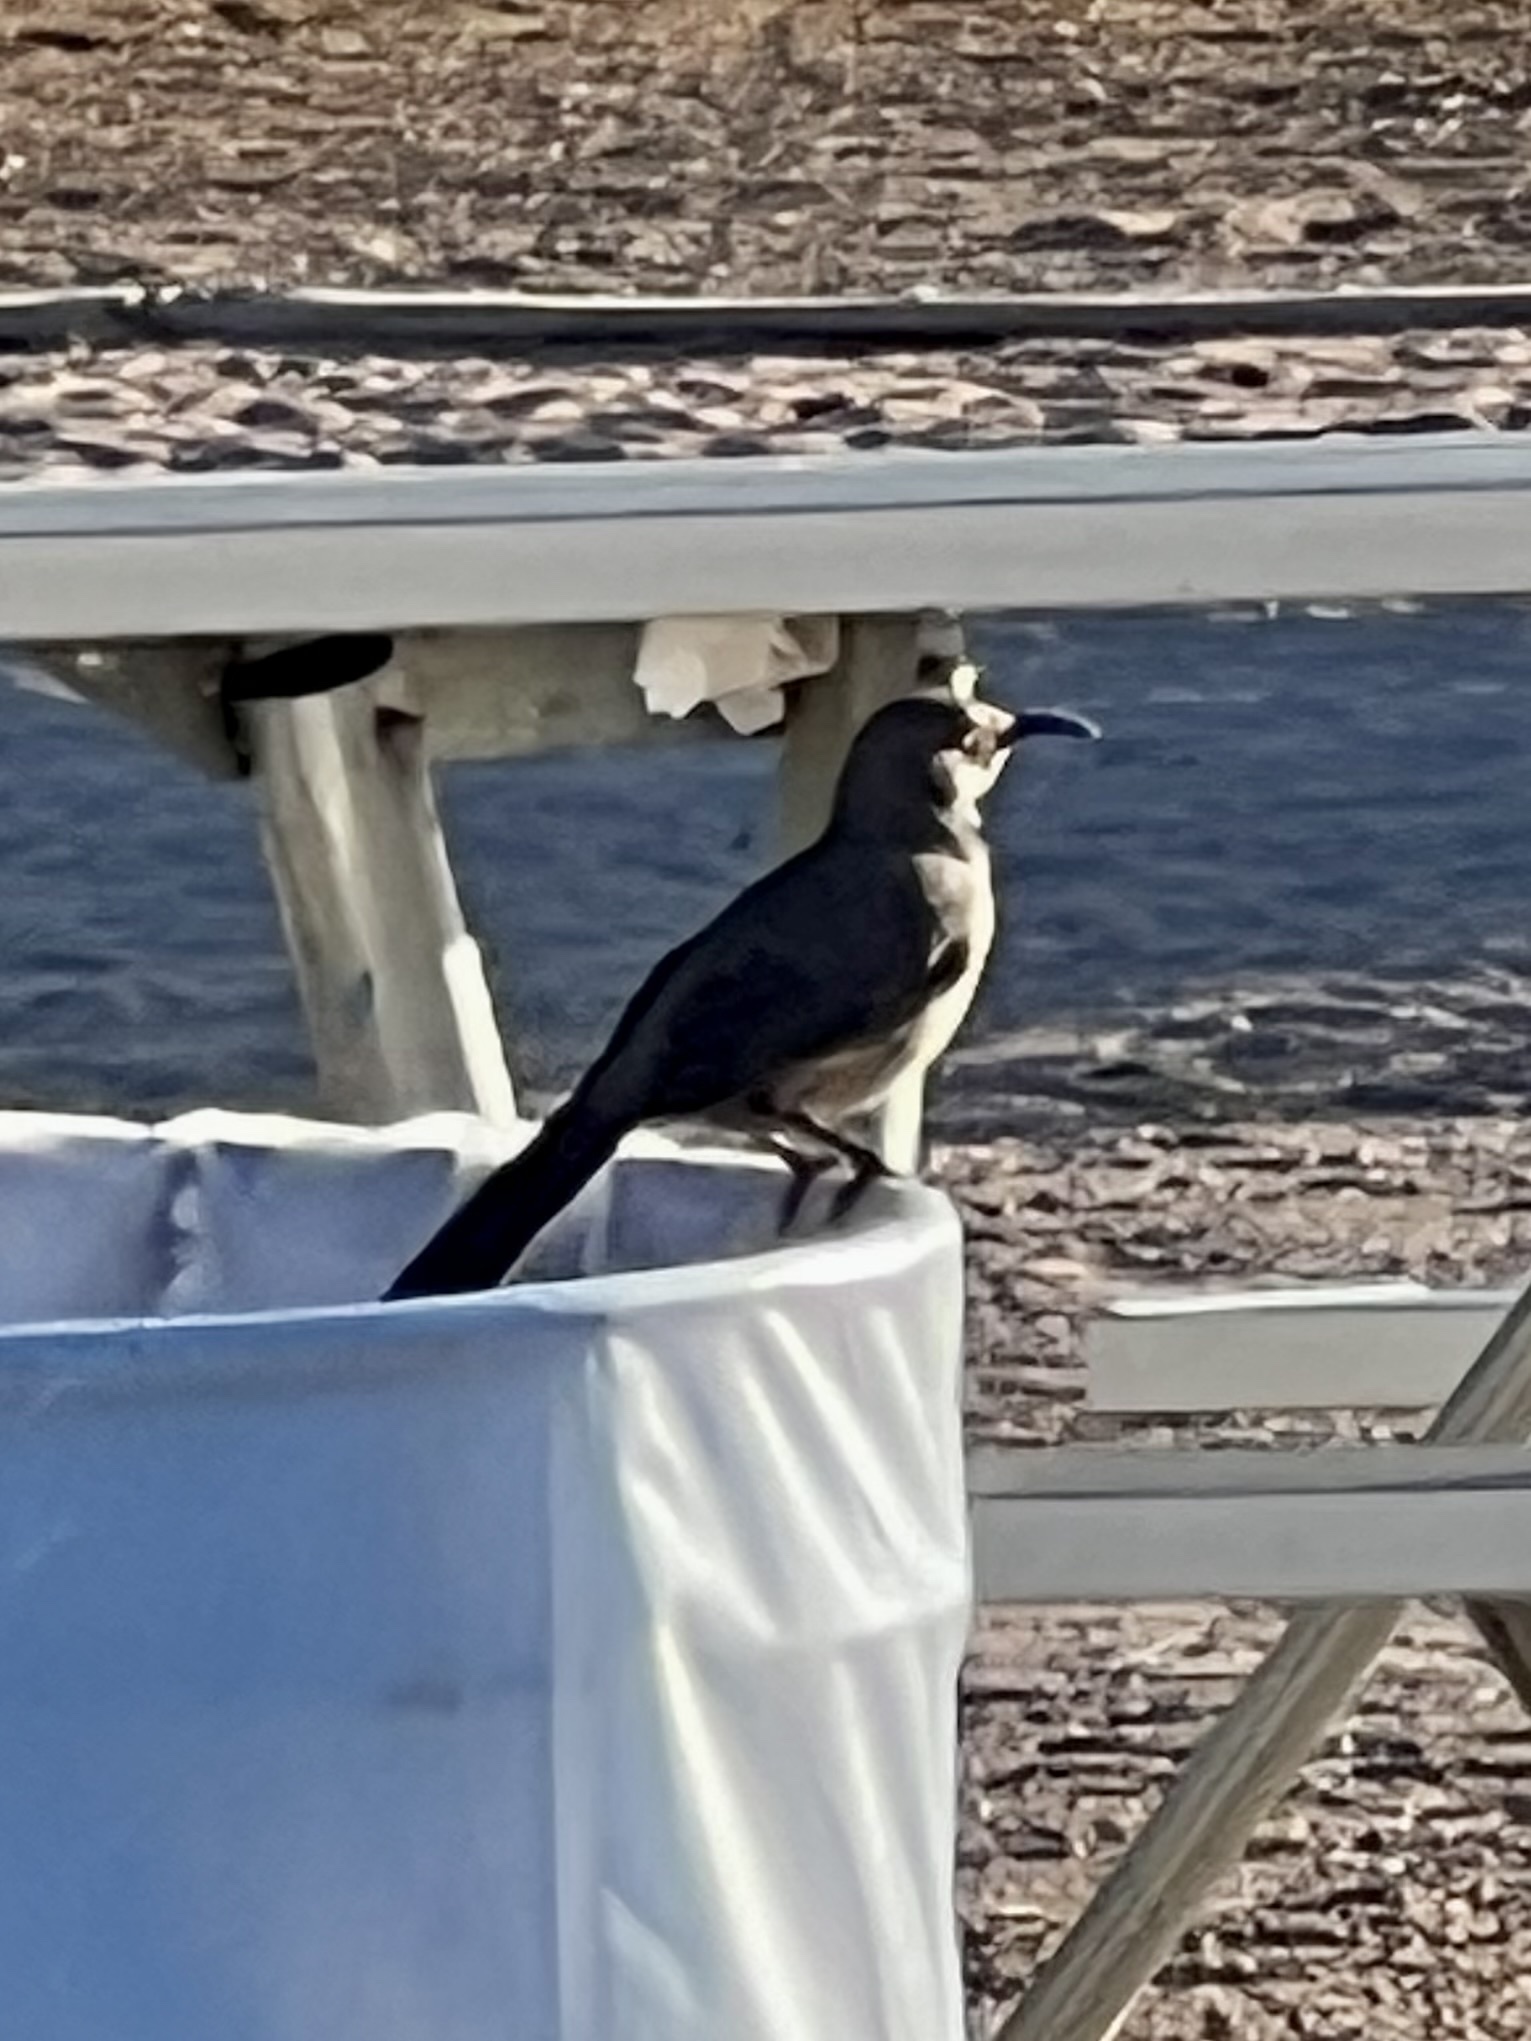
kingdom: Animalia
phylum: Chordata
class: Aves
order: Passeriformes
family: Mimidae
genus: Toxostoma
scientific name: Toxostoma curvirostre
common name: Curve-billed thrasher
